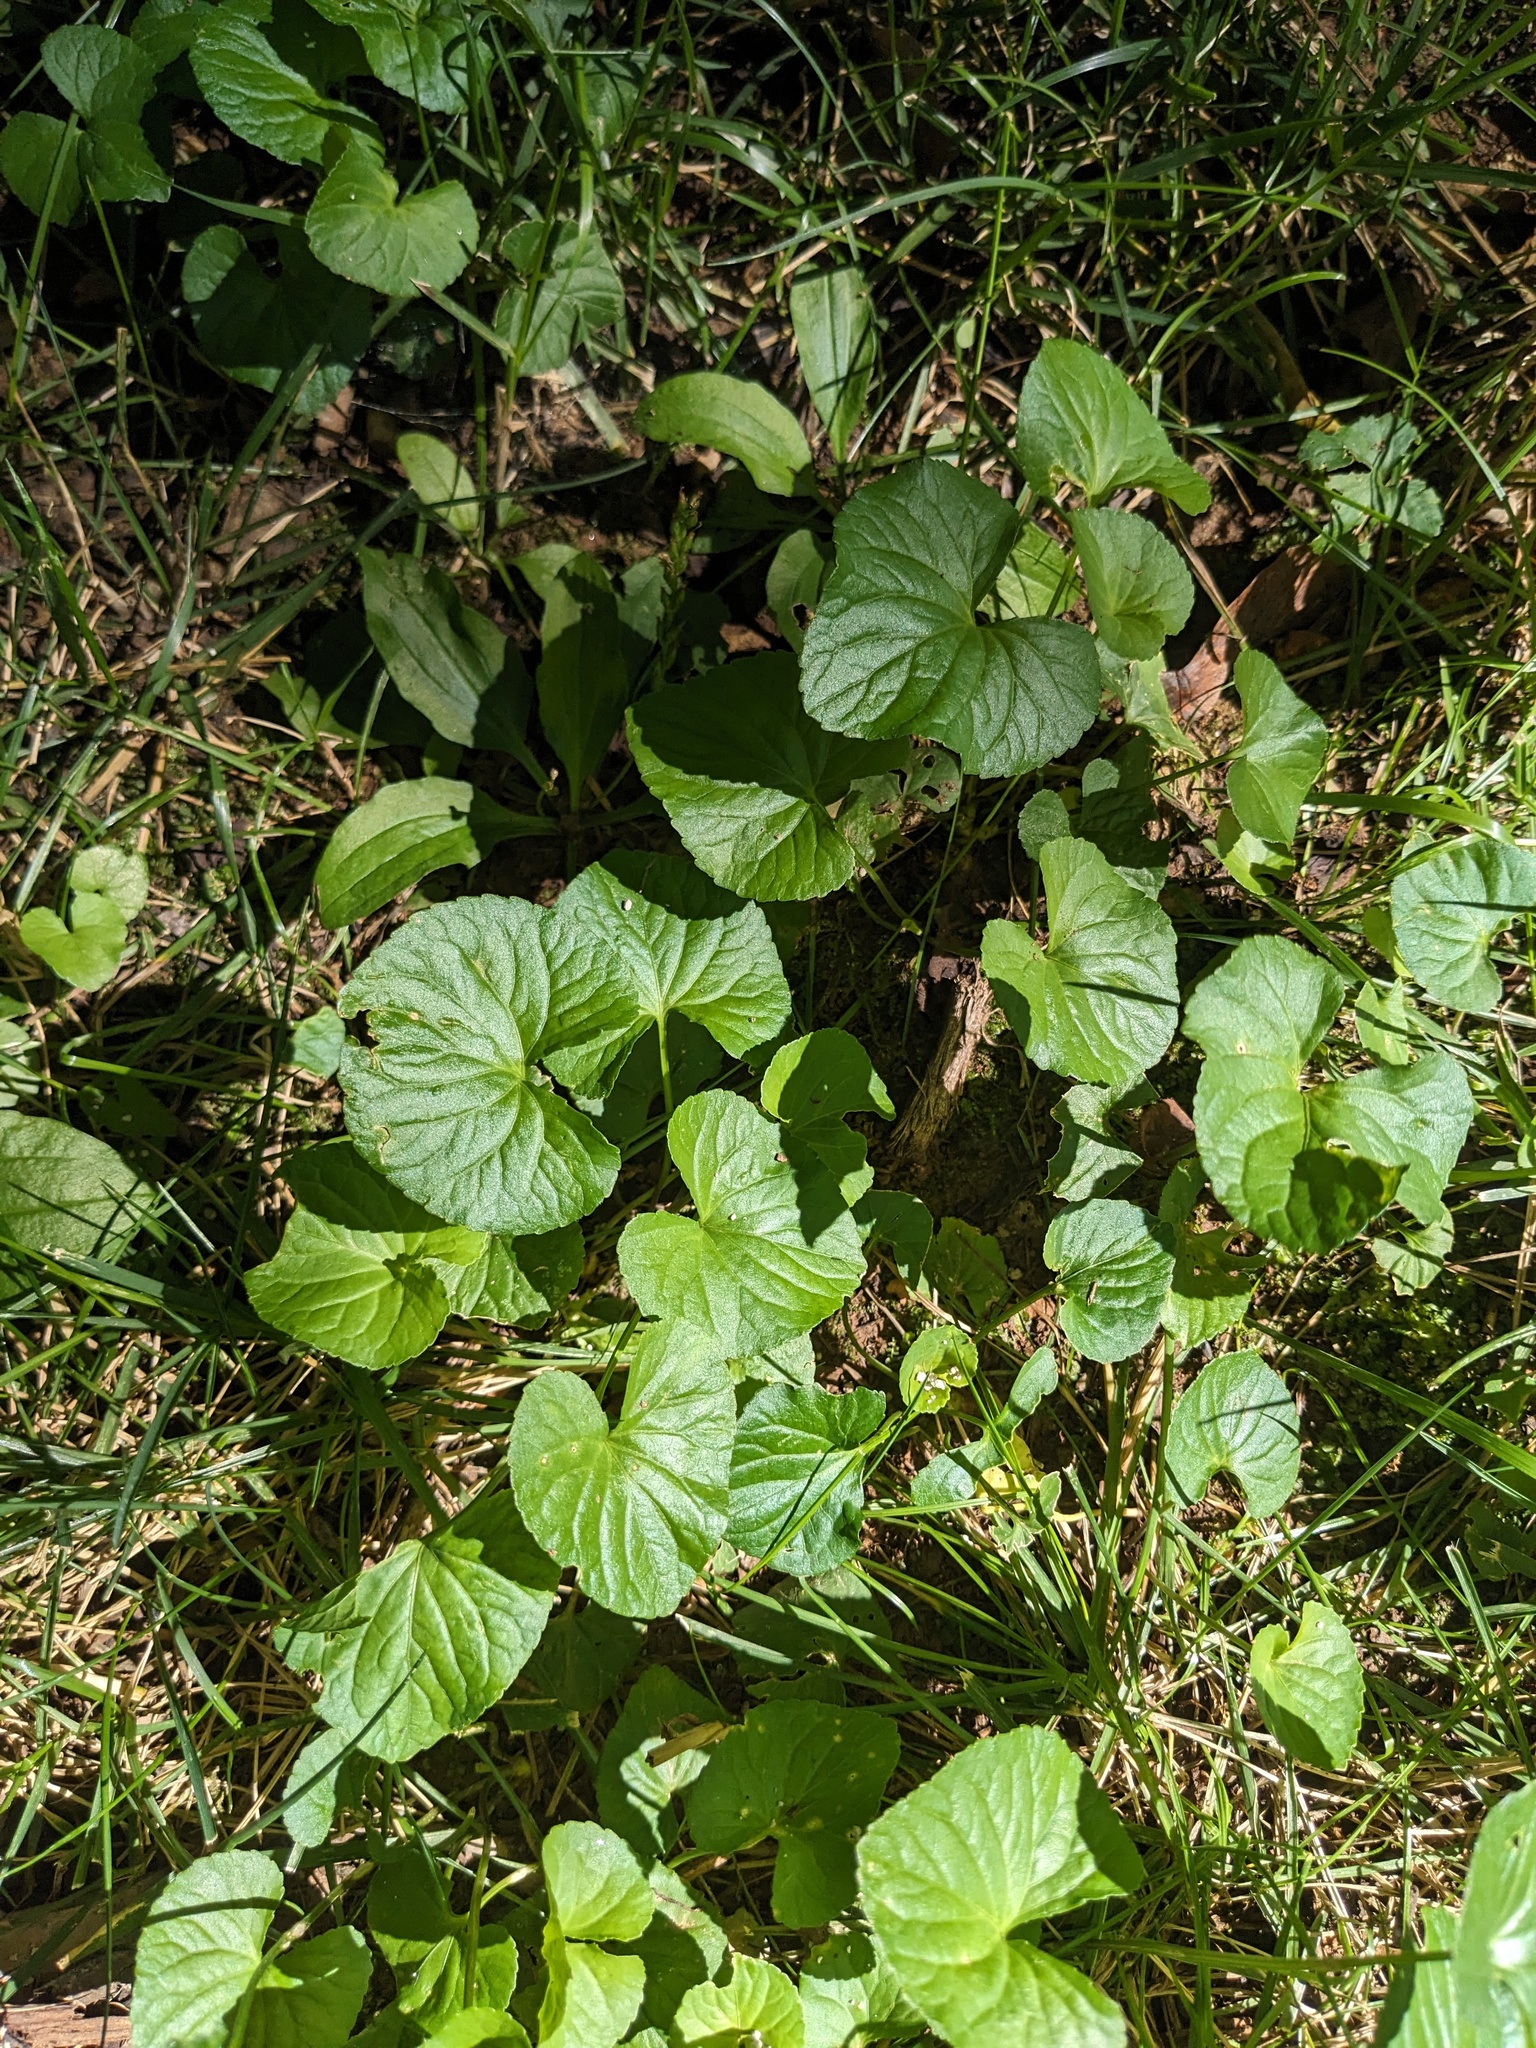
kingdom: Plantae
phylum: Tracheophyta
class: Magnoliopsida
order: Malpighiales
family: Violaceae
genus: Viola
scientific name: Viola sororia
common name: Dooryard violet
